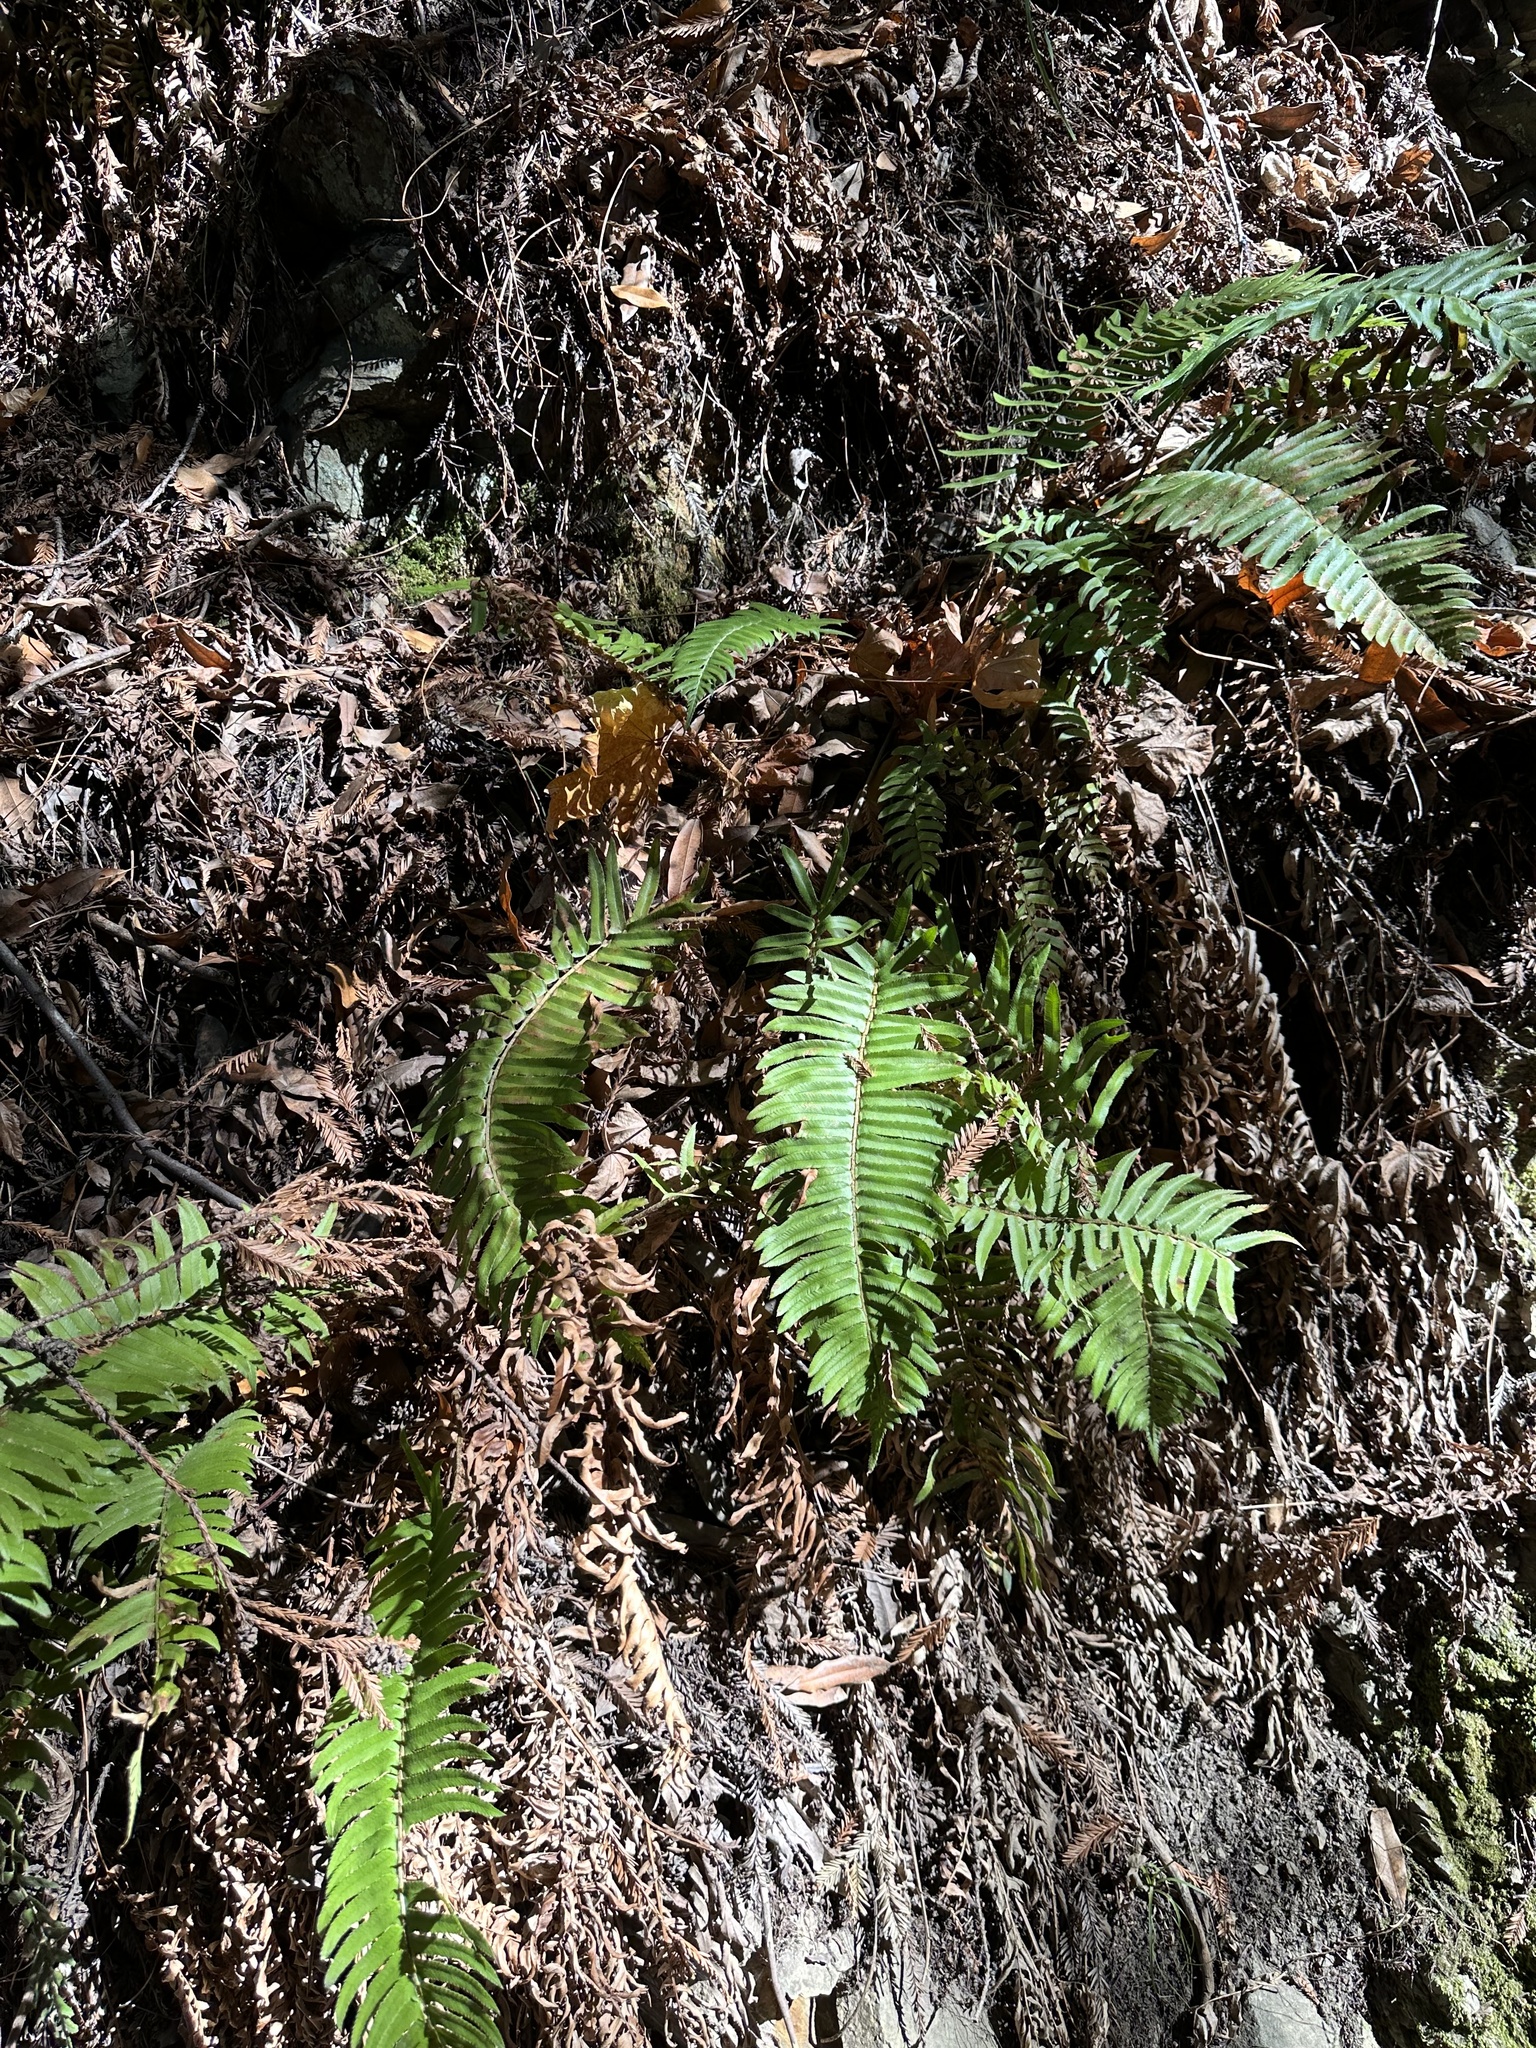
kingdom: Plantae
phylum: Tracheophyta
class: Polypodiopsida
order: Polypodiales
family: Dryopteridaceae
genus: Polystichum
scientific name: Polystichum munitum
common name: Western sword-fern
